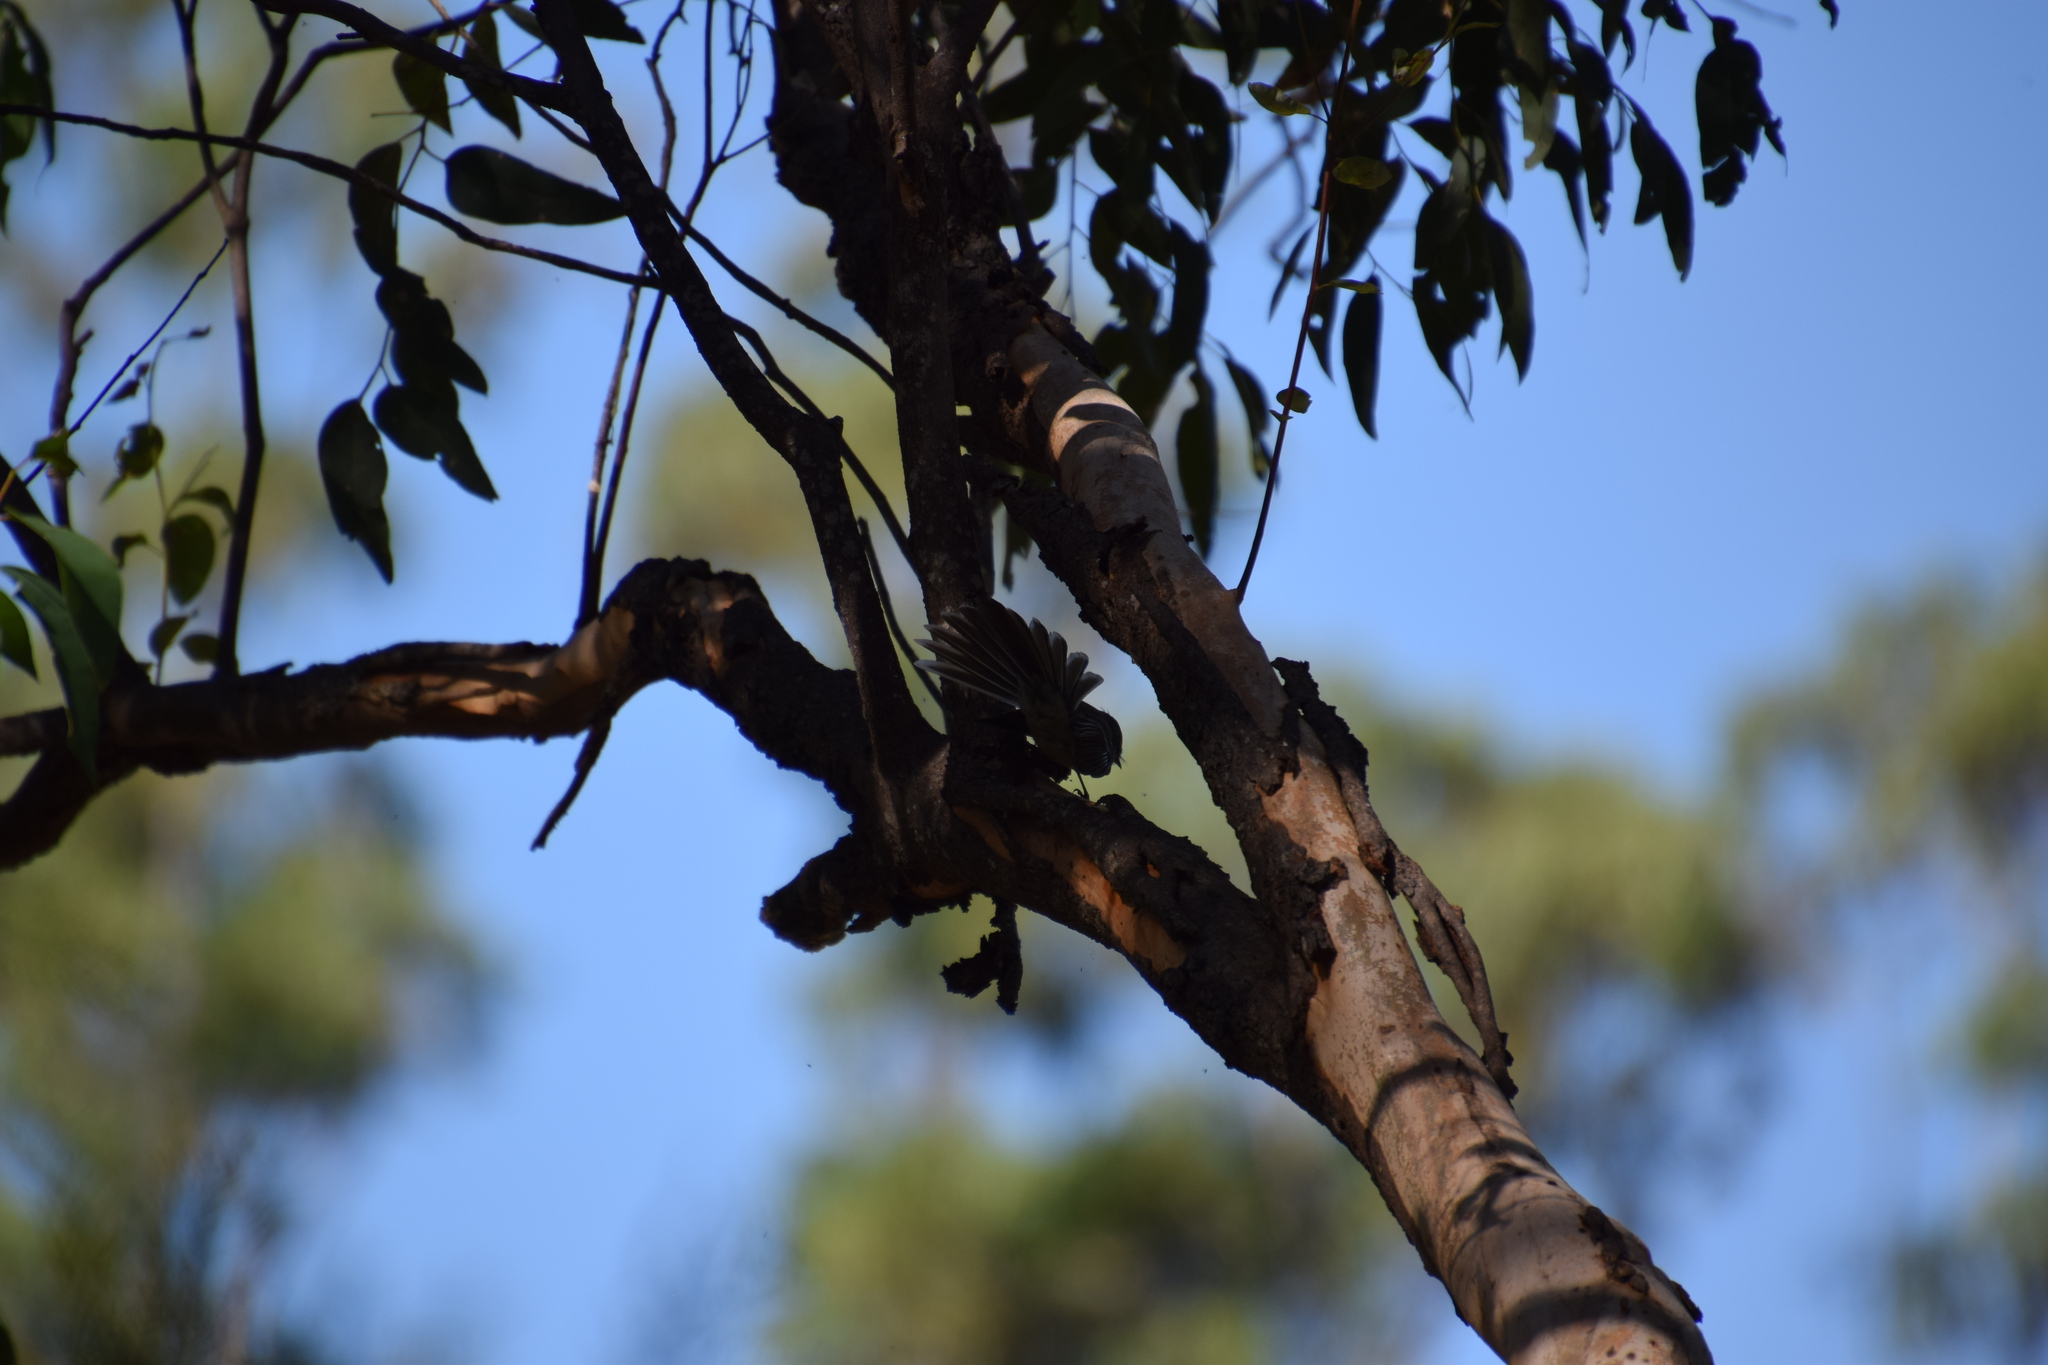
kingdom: Animalia
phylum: Chordata
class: Aves
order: Passeriformes
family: Rhipiduridae
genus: Rhipidura
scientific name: Rhipidura albiscapa
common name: Grey fantail
